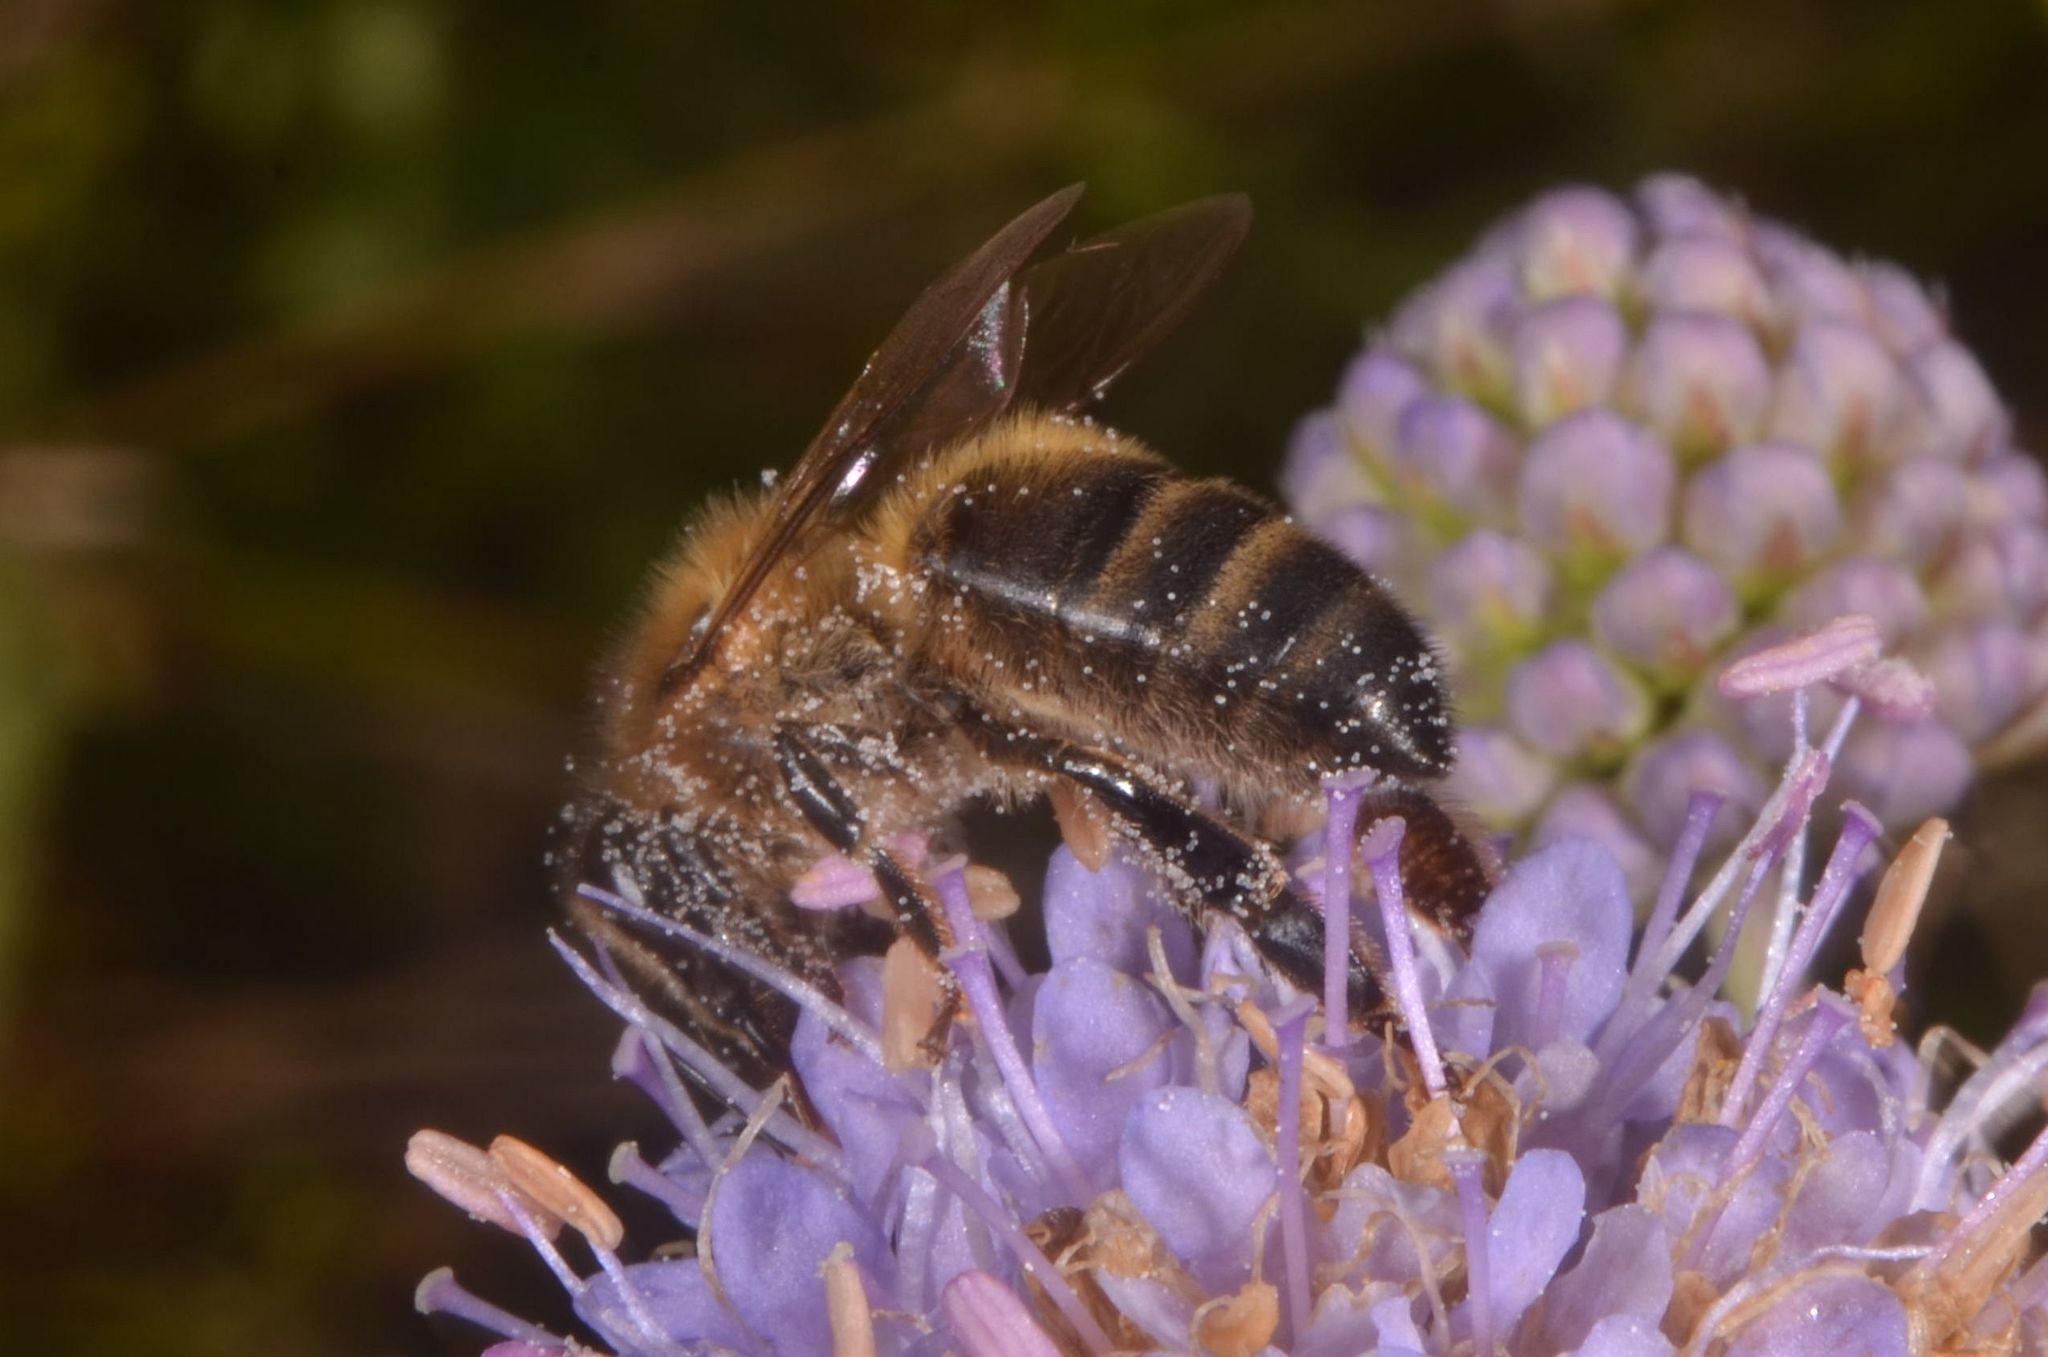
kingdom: Animalia
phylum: Arthropoda
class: Insecta
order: Hymenoptera
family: Apidae
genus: Apis
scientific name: Apis mellifera
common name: Honey bee
